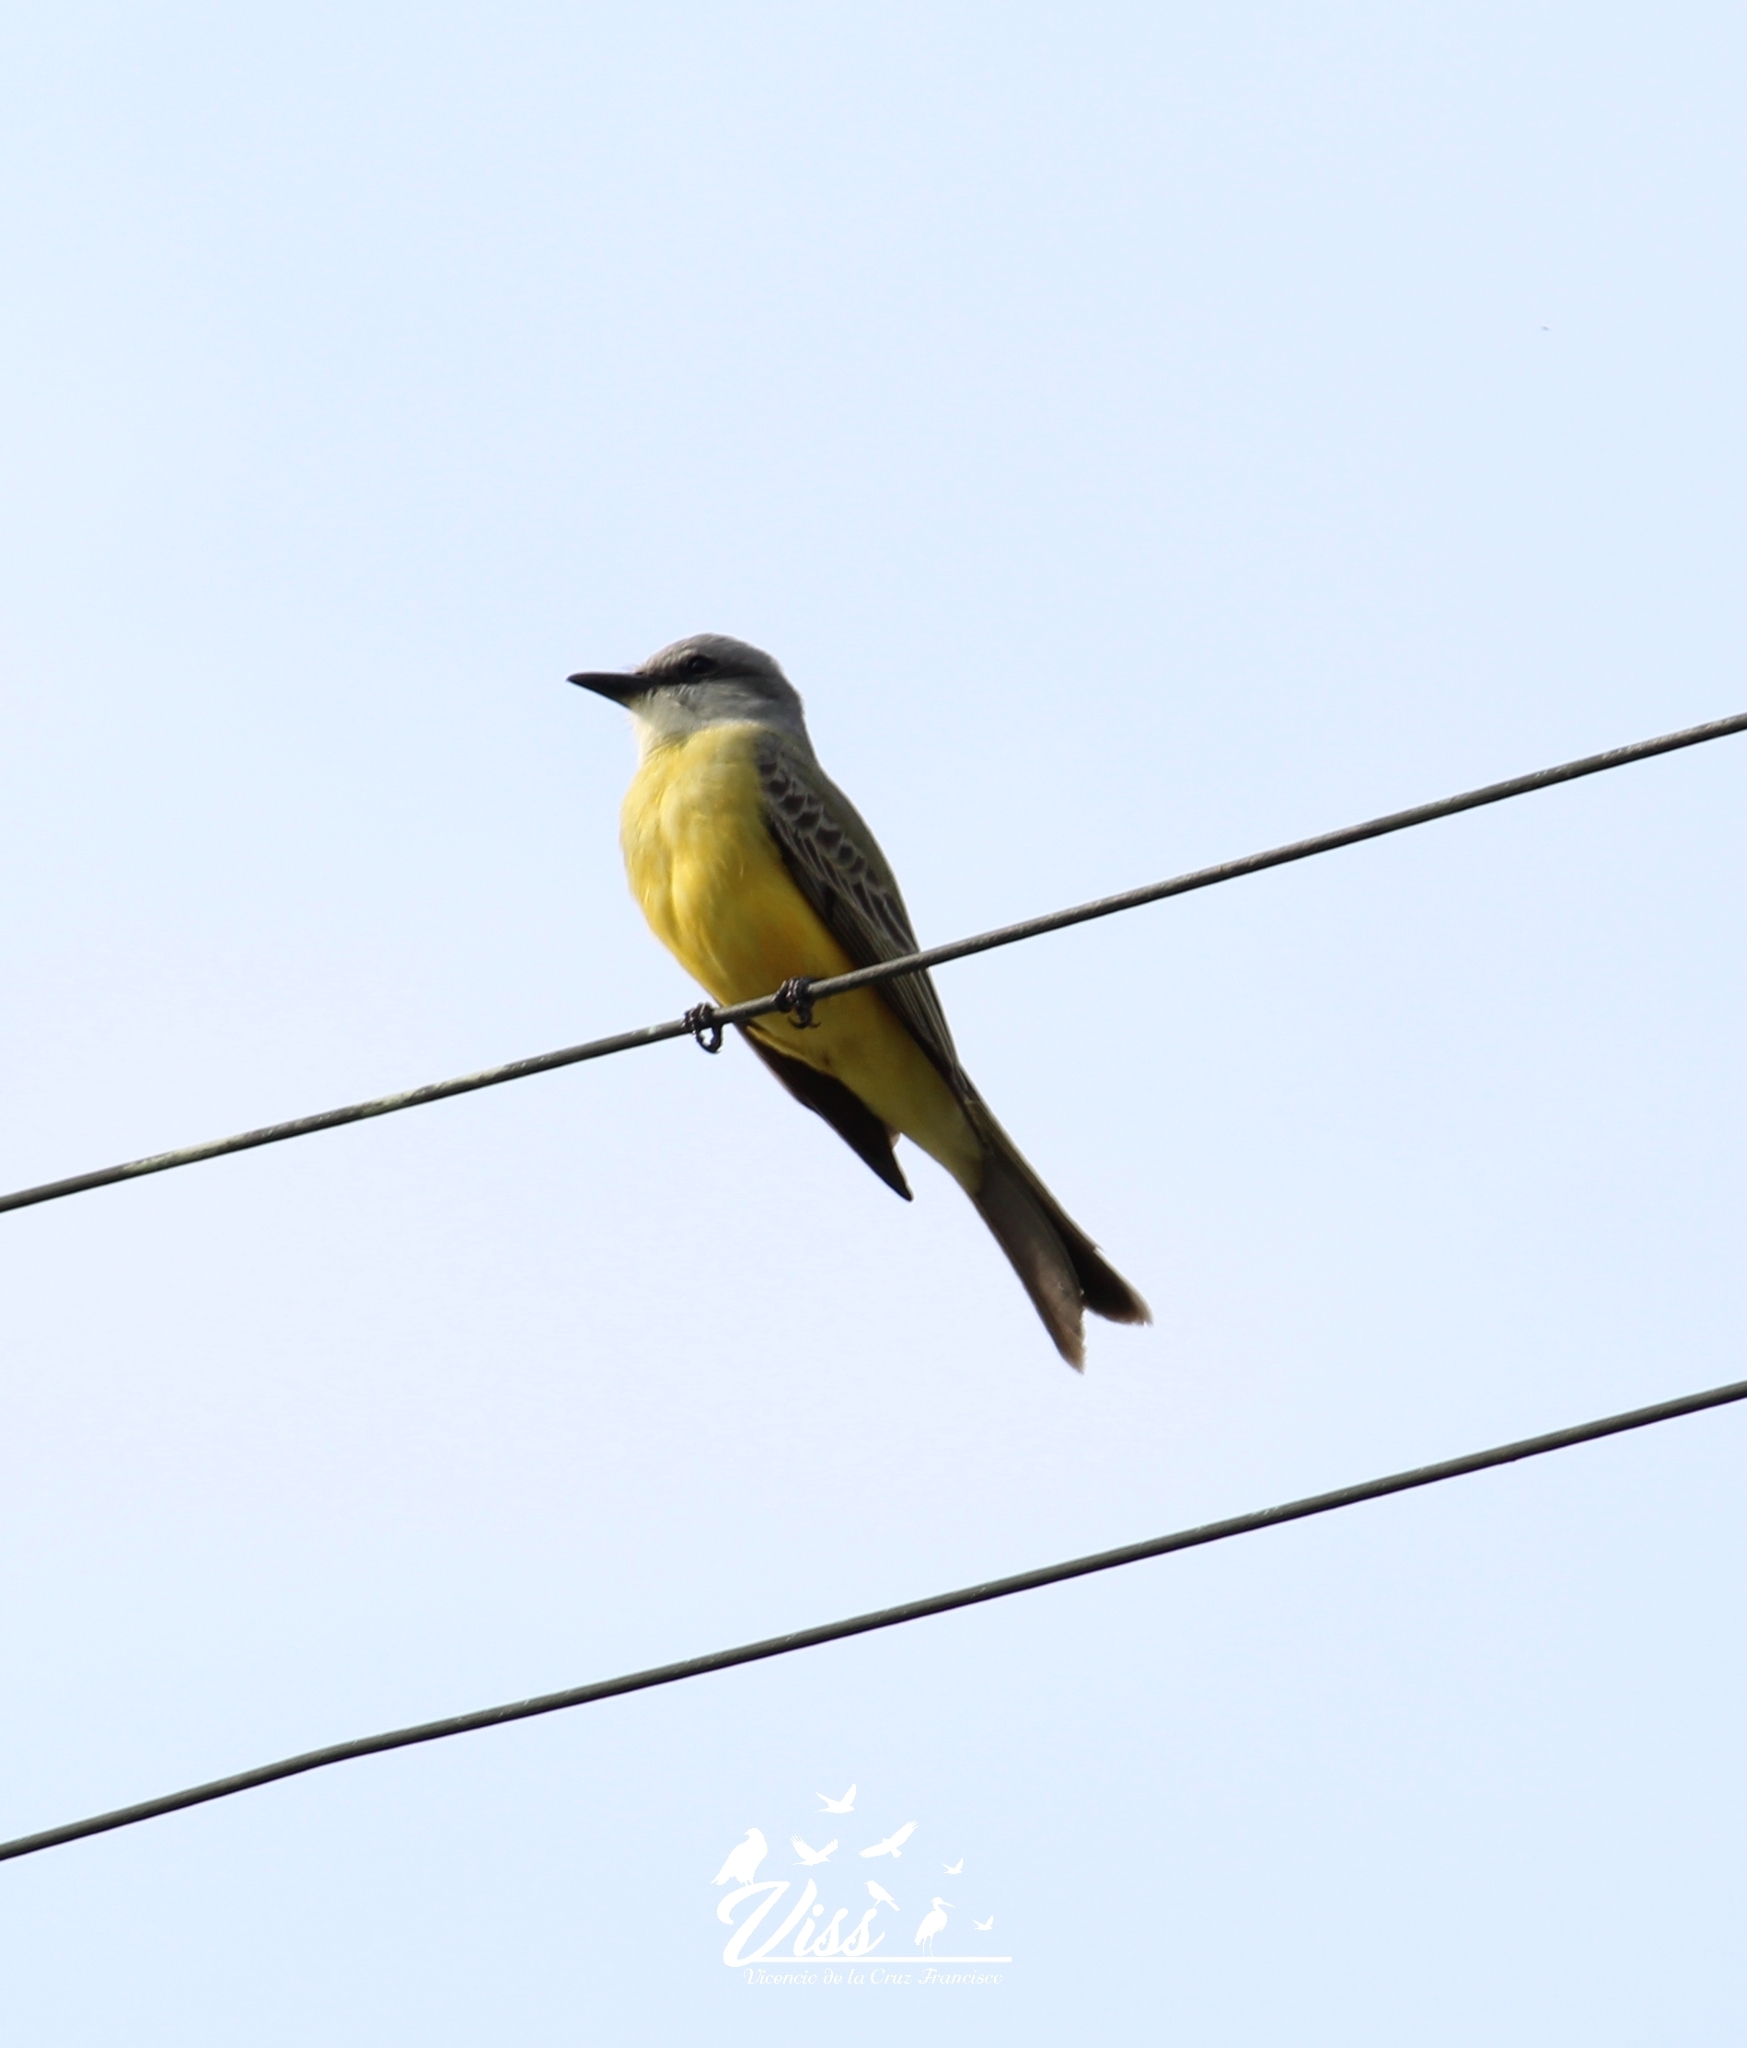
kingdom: Animalia
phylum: Chordata
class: Aves
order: Passeriformes
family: Tyrannidae
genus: Tyrannus
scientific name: Tyrannus melancholicus
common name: Tropical kingbird
